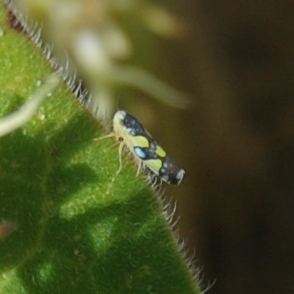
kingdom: Animalia
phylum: Arthropoda
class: Insecta
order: Hemiptera
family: Cicadellidae
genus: Protalebrella
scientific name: Protalebrella brasiliensis
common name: Brasilian leafhopper
